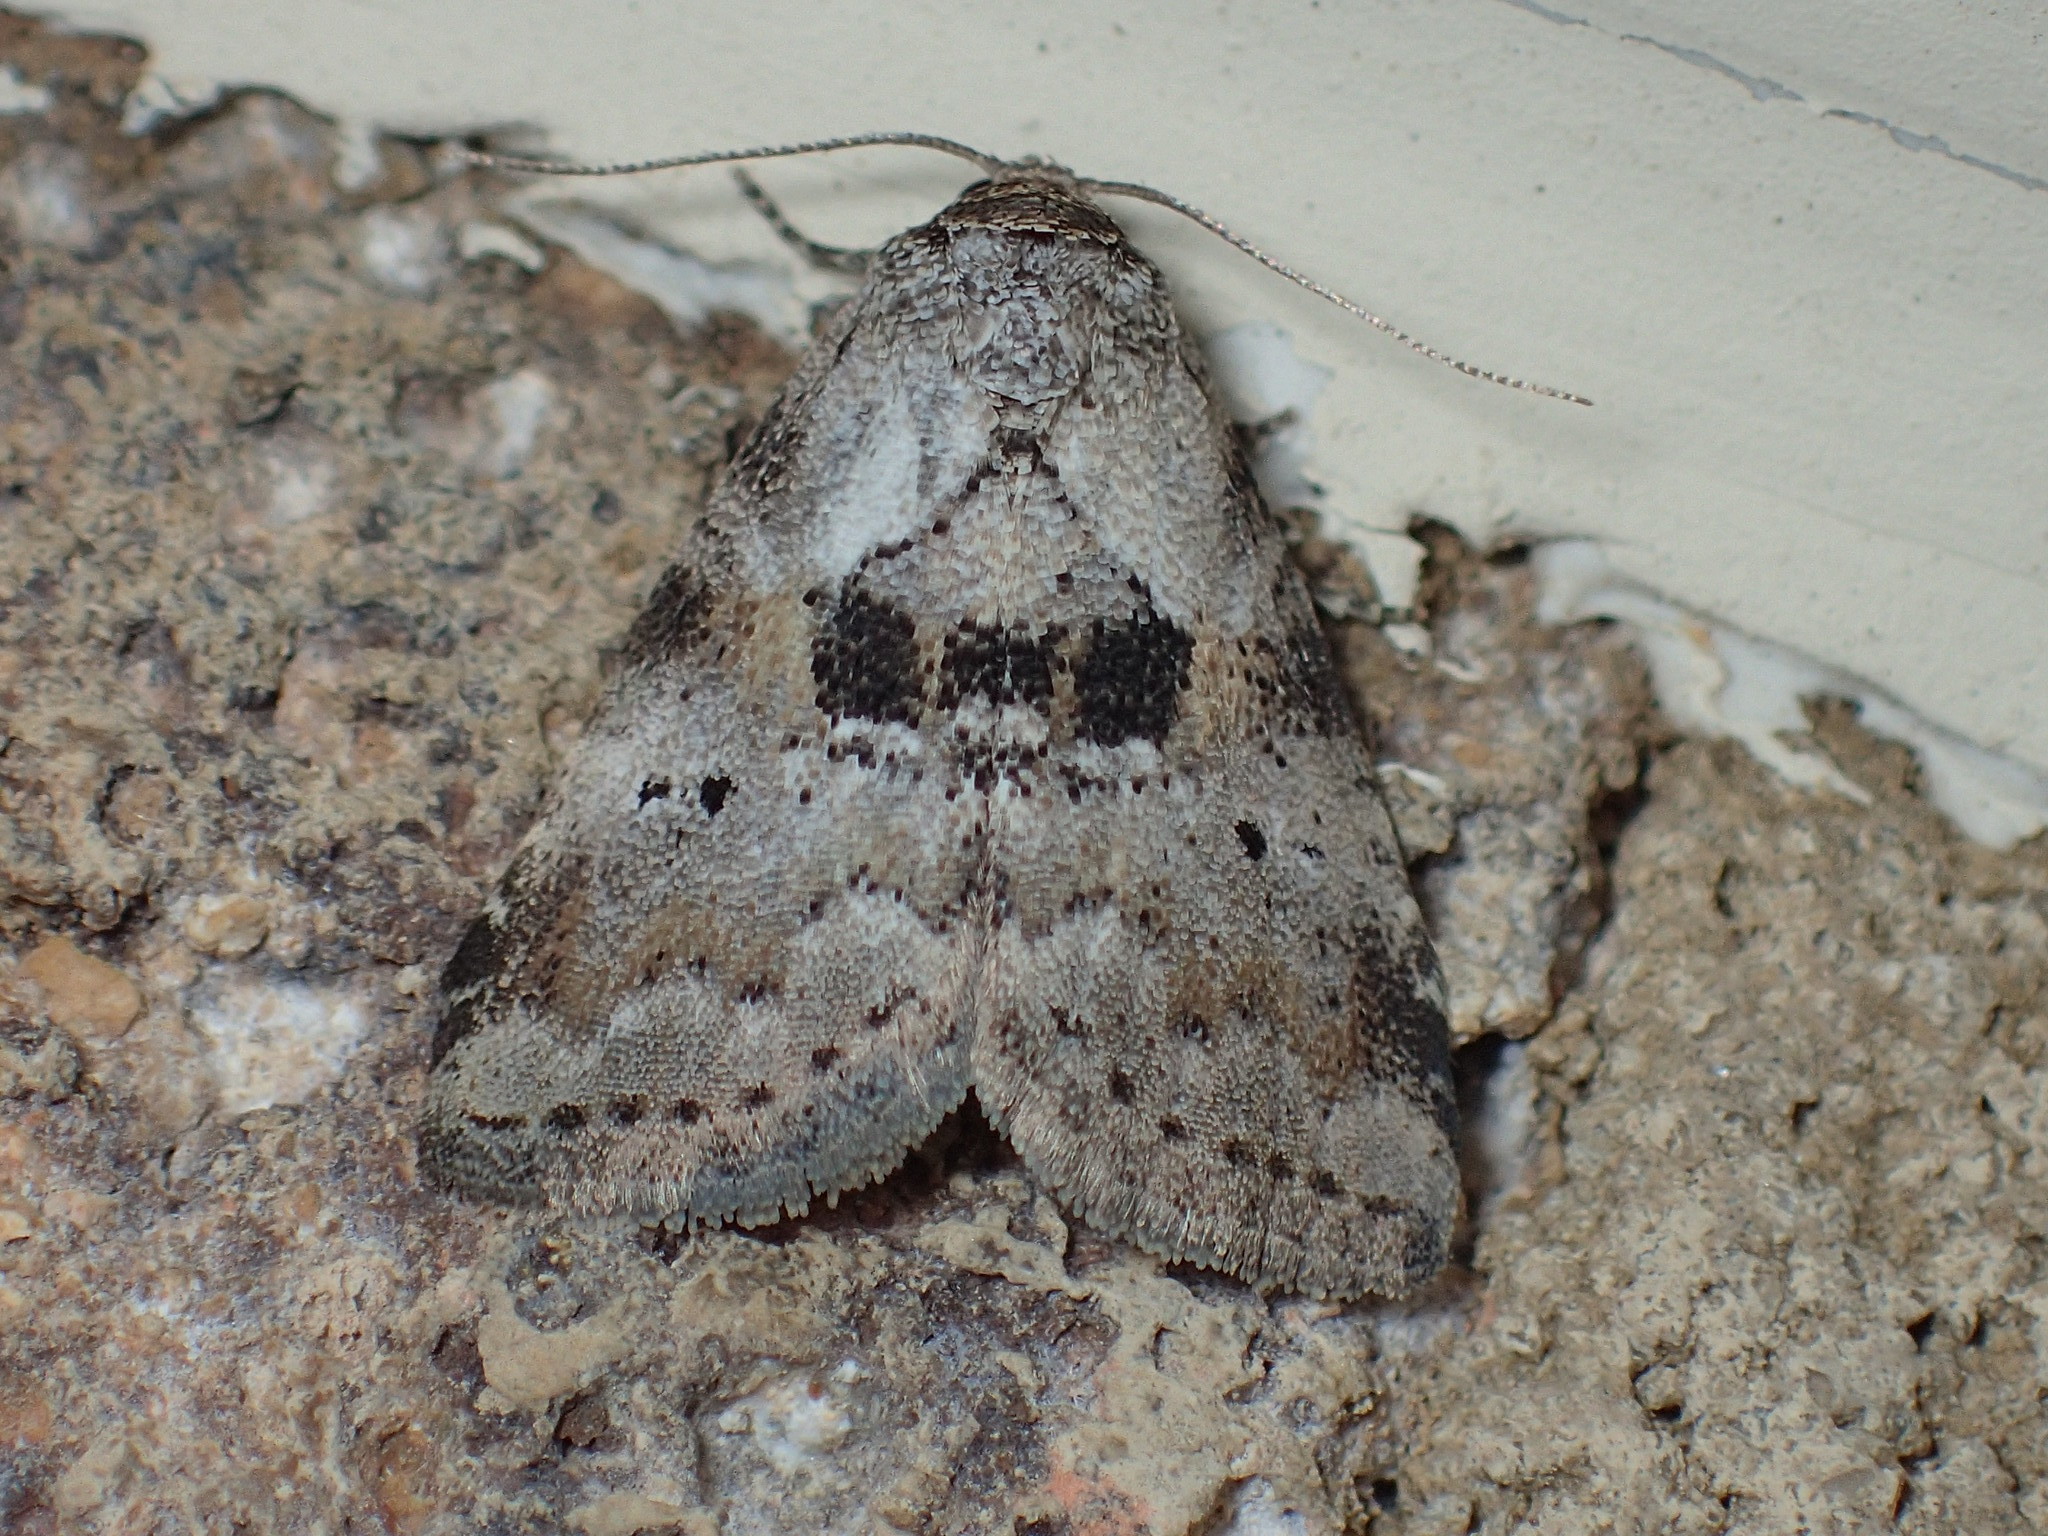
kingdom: Animalia
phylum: Arthropoda
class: Insecta
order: Lepidoptera
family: Erebidae
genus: Hyperstrotia
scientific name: Hyperstrotia secta
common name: Black-patched graylet
